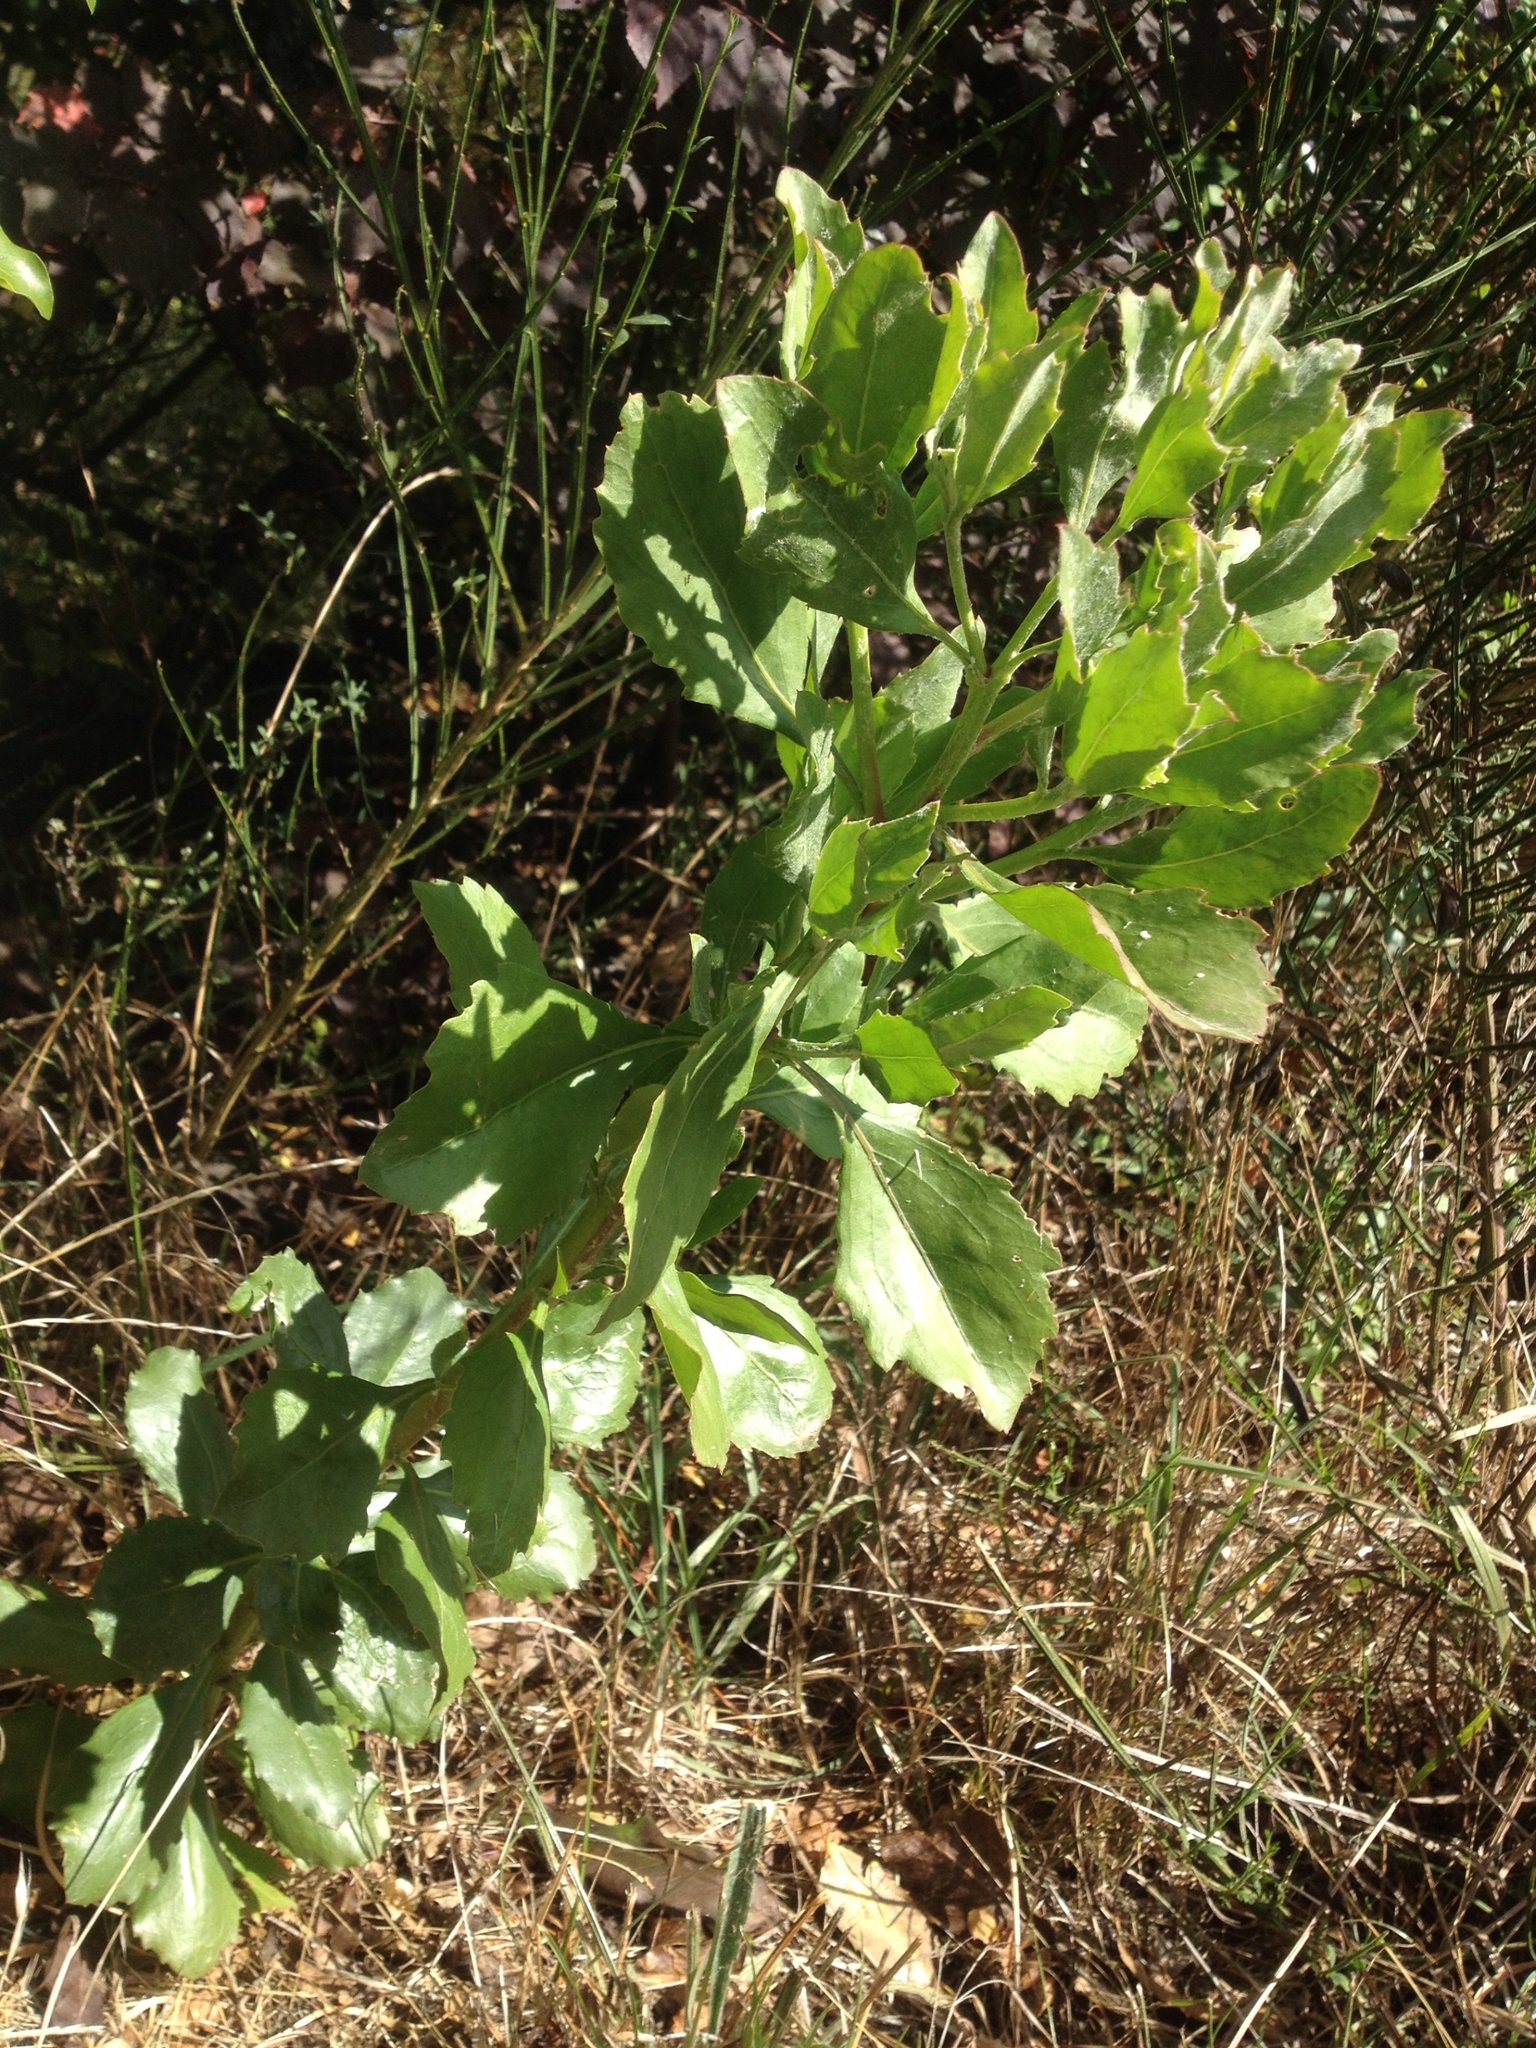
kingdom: Plantae
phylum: Tracheophyta
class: Magnoliopsida
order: Asterales
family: Asteraceae
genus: Osteospermum
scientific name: Osteospermum moniliferum
